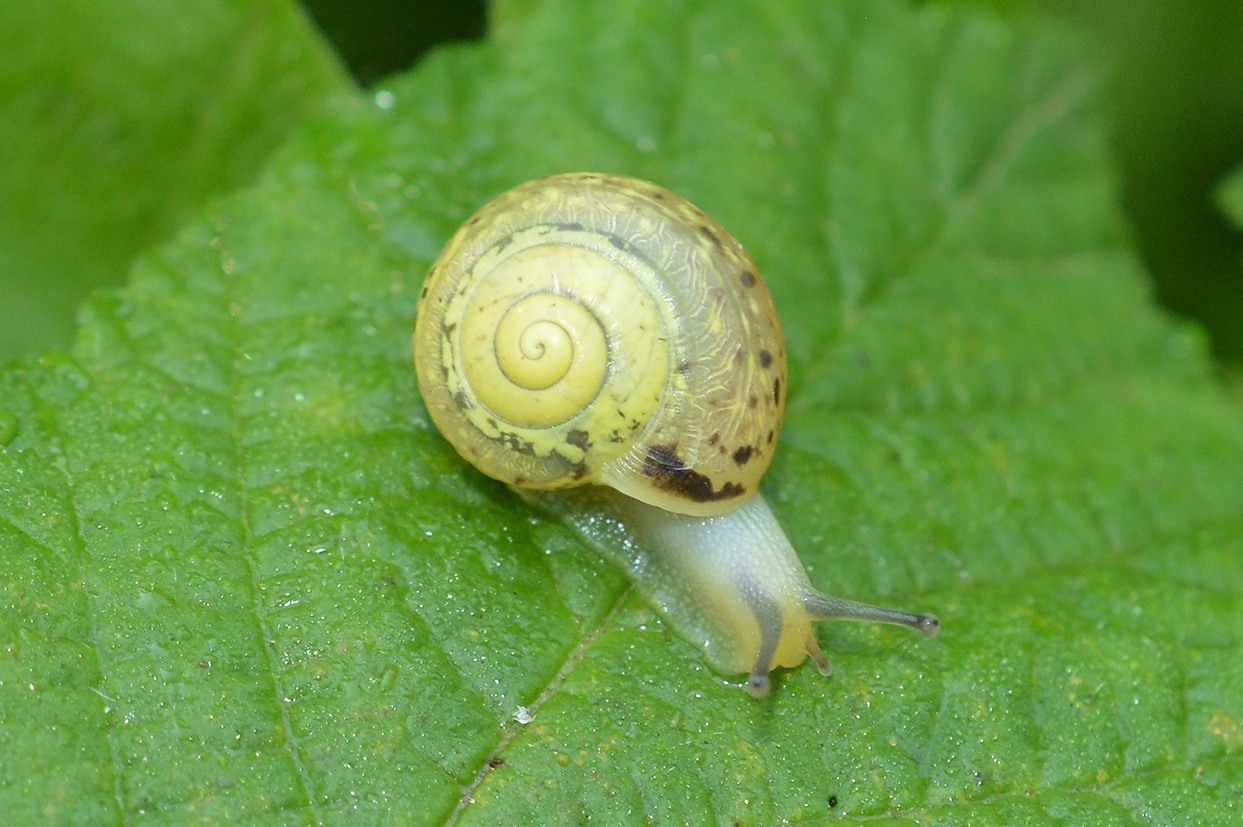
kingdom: Animalia
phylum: Mollusca
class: Gastropoda
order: Stylommatophora
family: Camaenidae
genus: Fruticicola
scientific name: Fruticicola fruticum
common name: Bush snail
